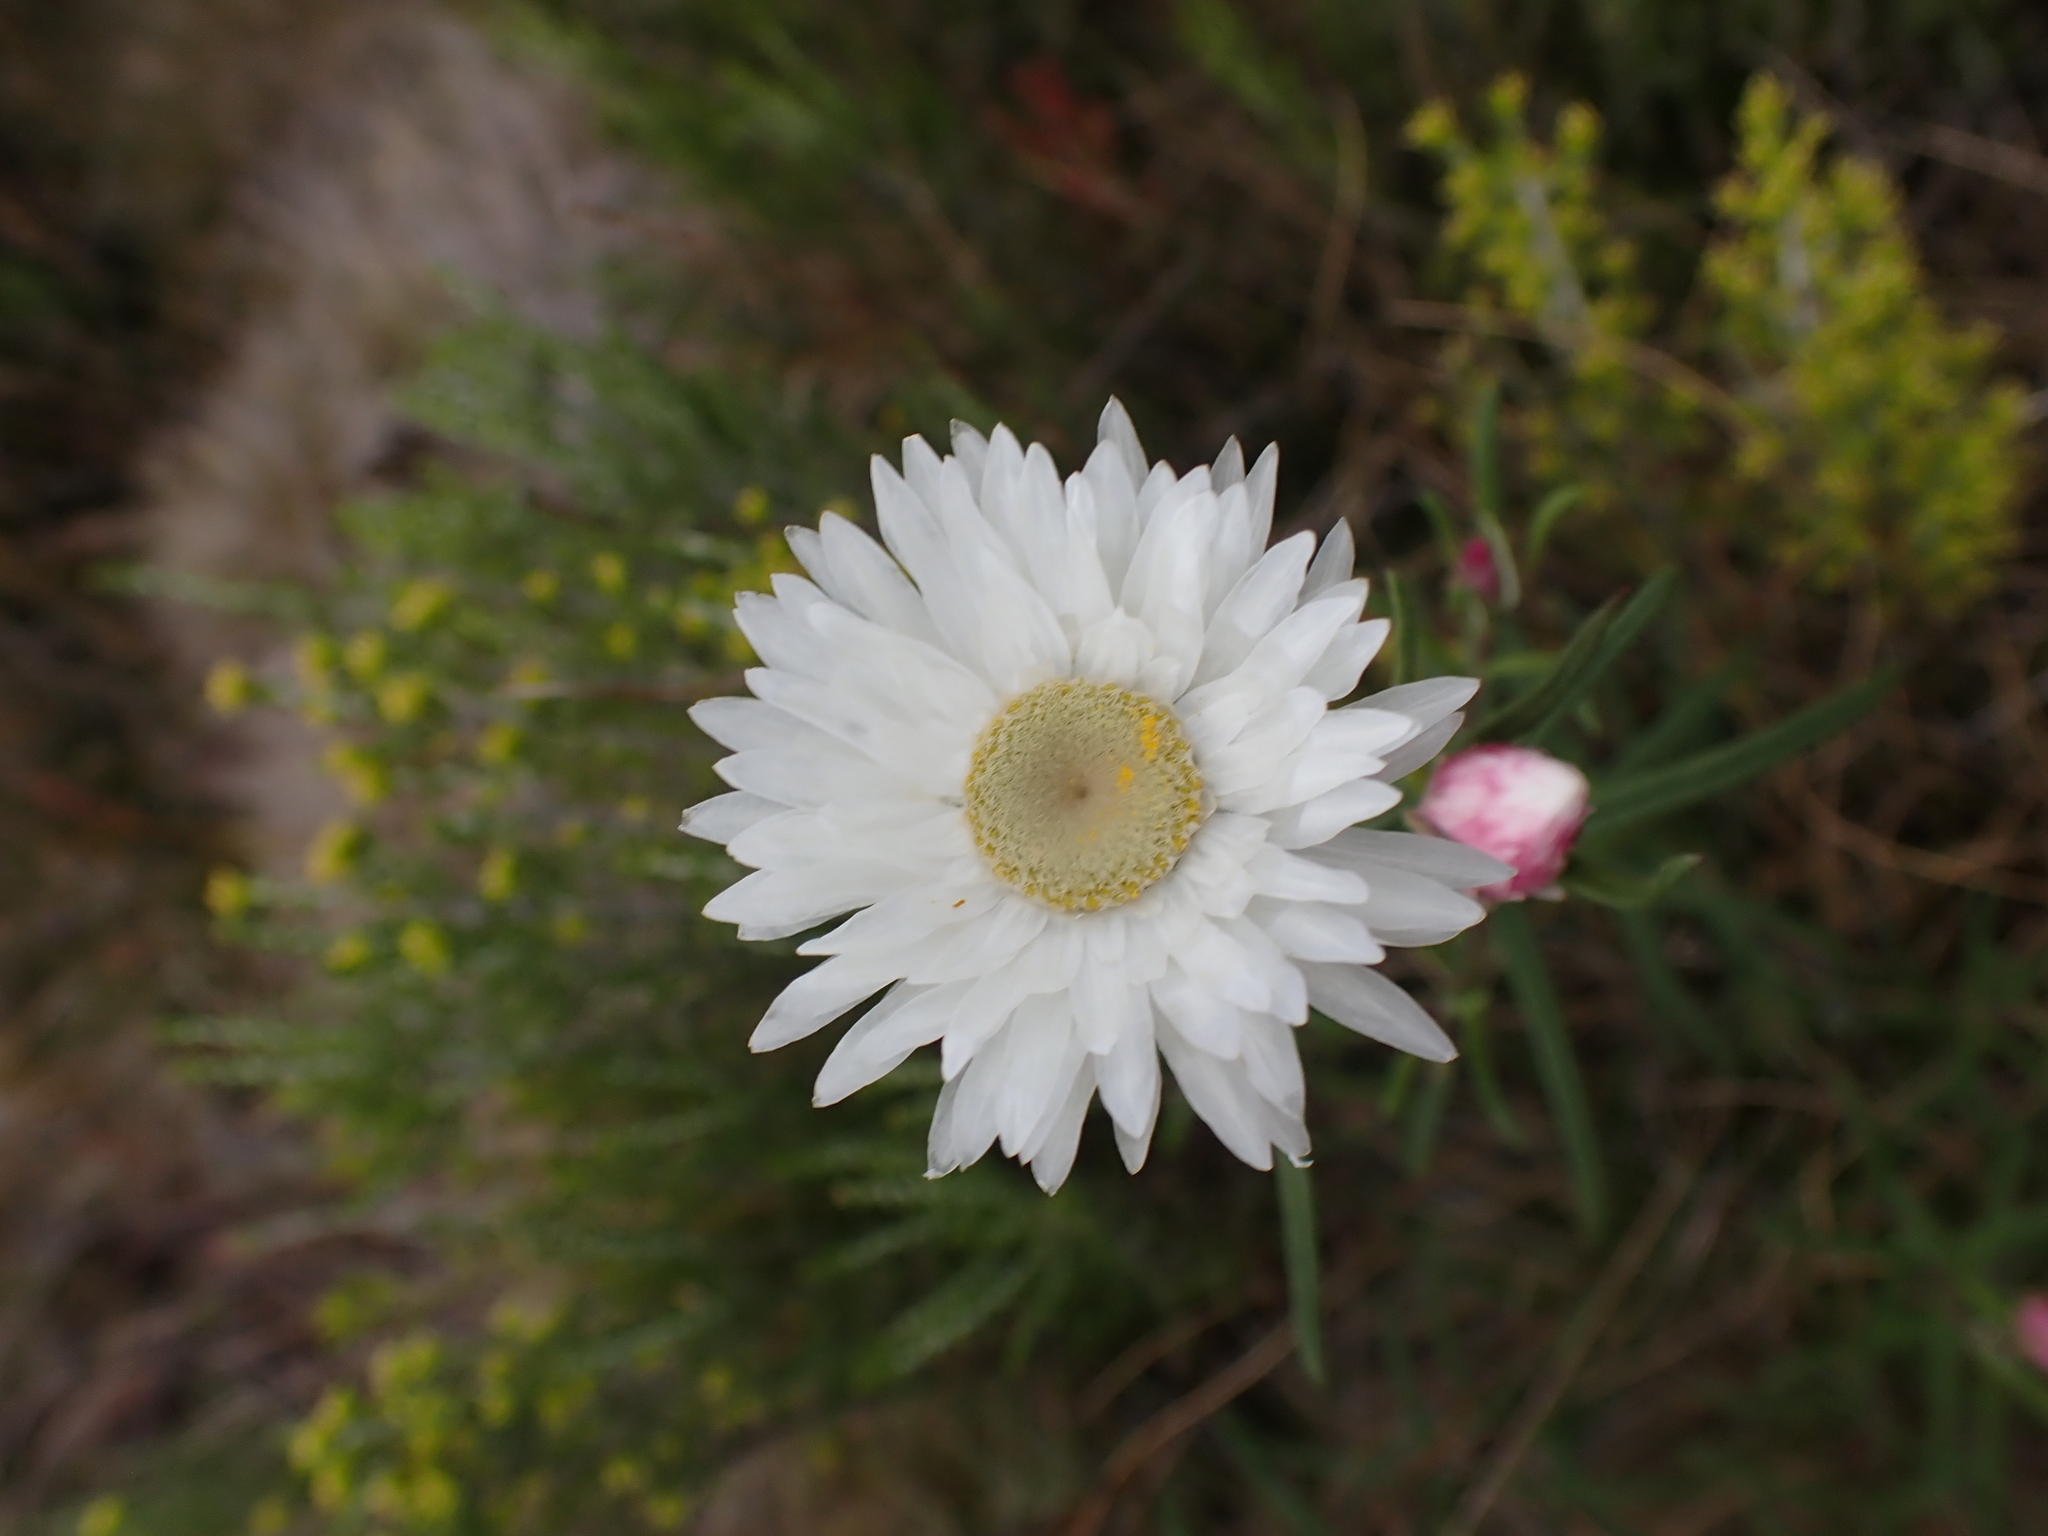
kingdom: Plantae
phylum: Tracheophyta
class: Magnoliopsida
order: Asterales
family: Asteraceae
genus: Coronidium
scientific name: Coronidium waddelliae
